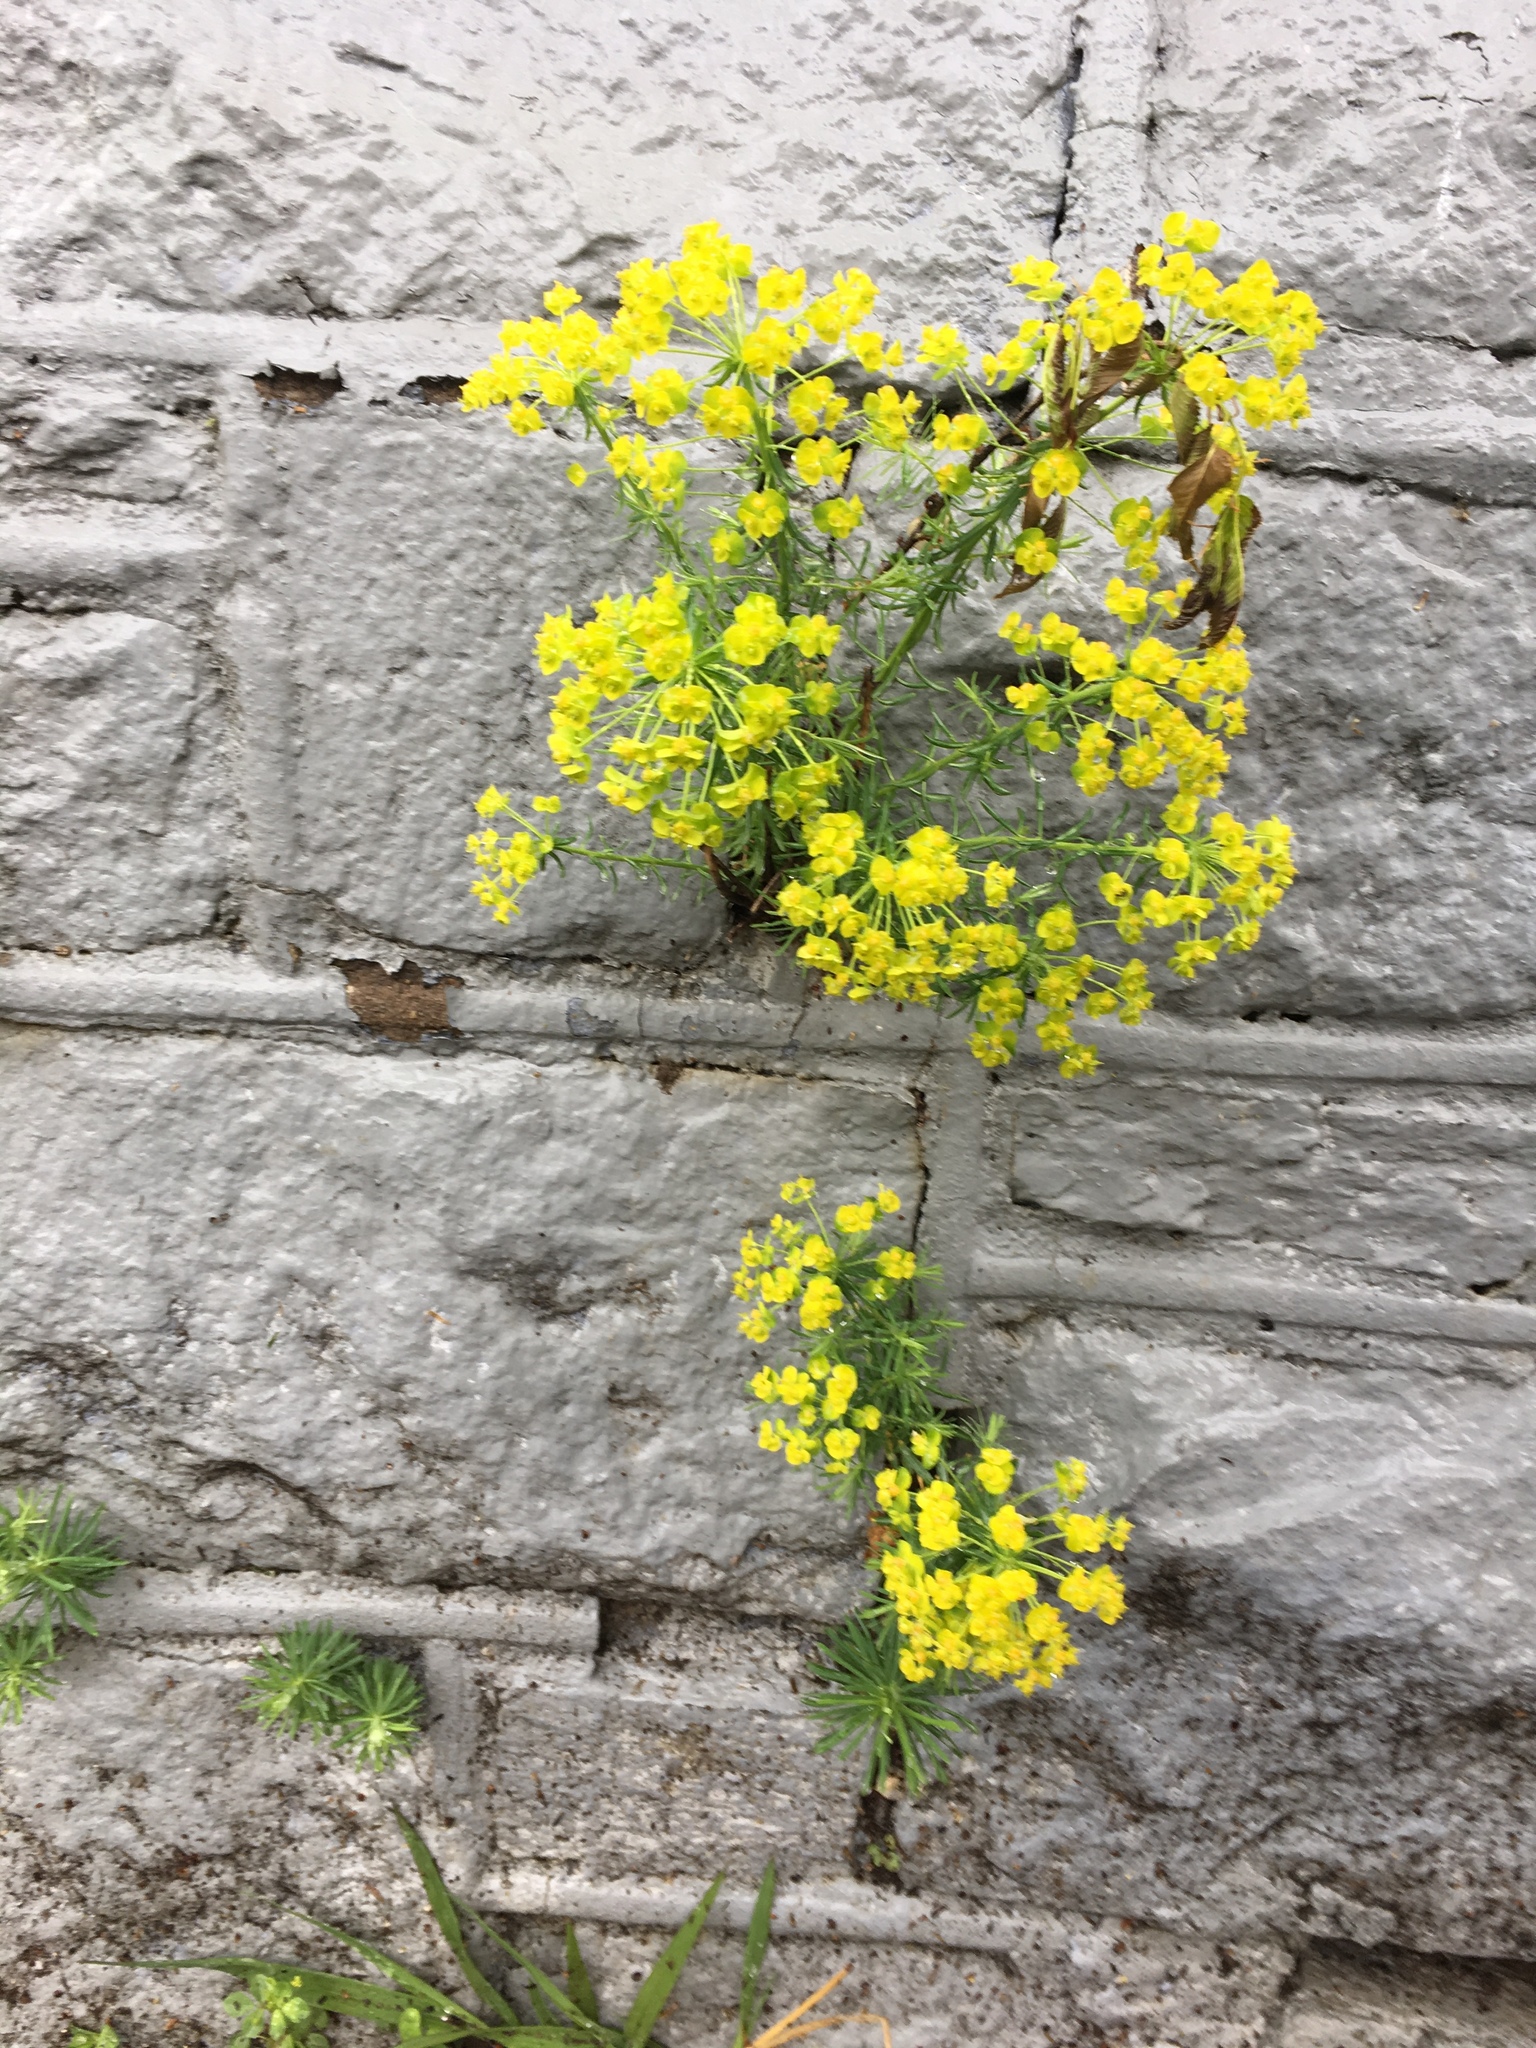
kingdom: Plantae
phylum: Tracheophyta
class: Magnoliopsida
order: Malpighiales
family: Euphorbiaceae
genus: Euphorbia
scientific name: Euphorbia cyparissias
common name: Cypress spurge
